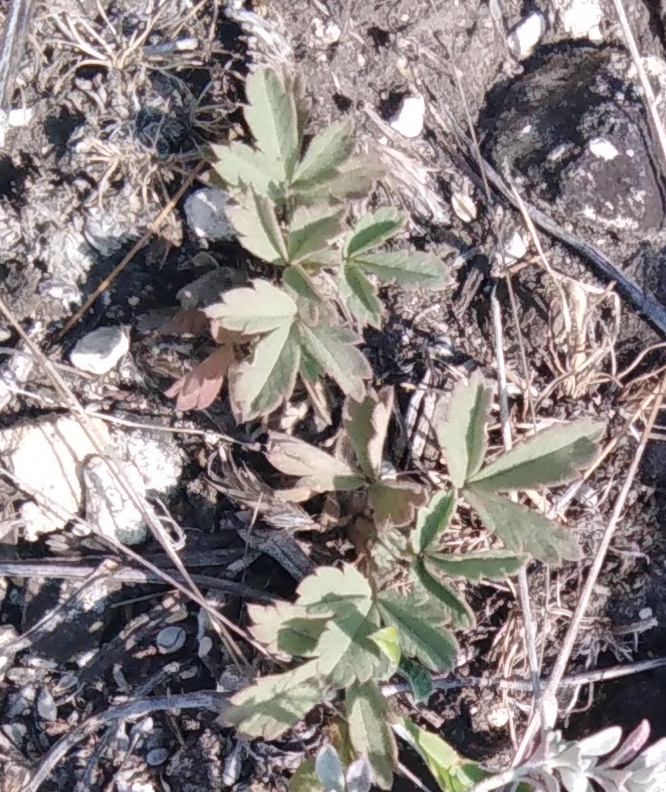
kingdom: Plantae
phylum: Tracheophyta
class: Magnoliopsida
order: Rosales
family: Rosaceae
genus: Potentilla
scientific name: Potentilla incana
